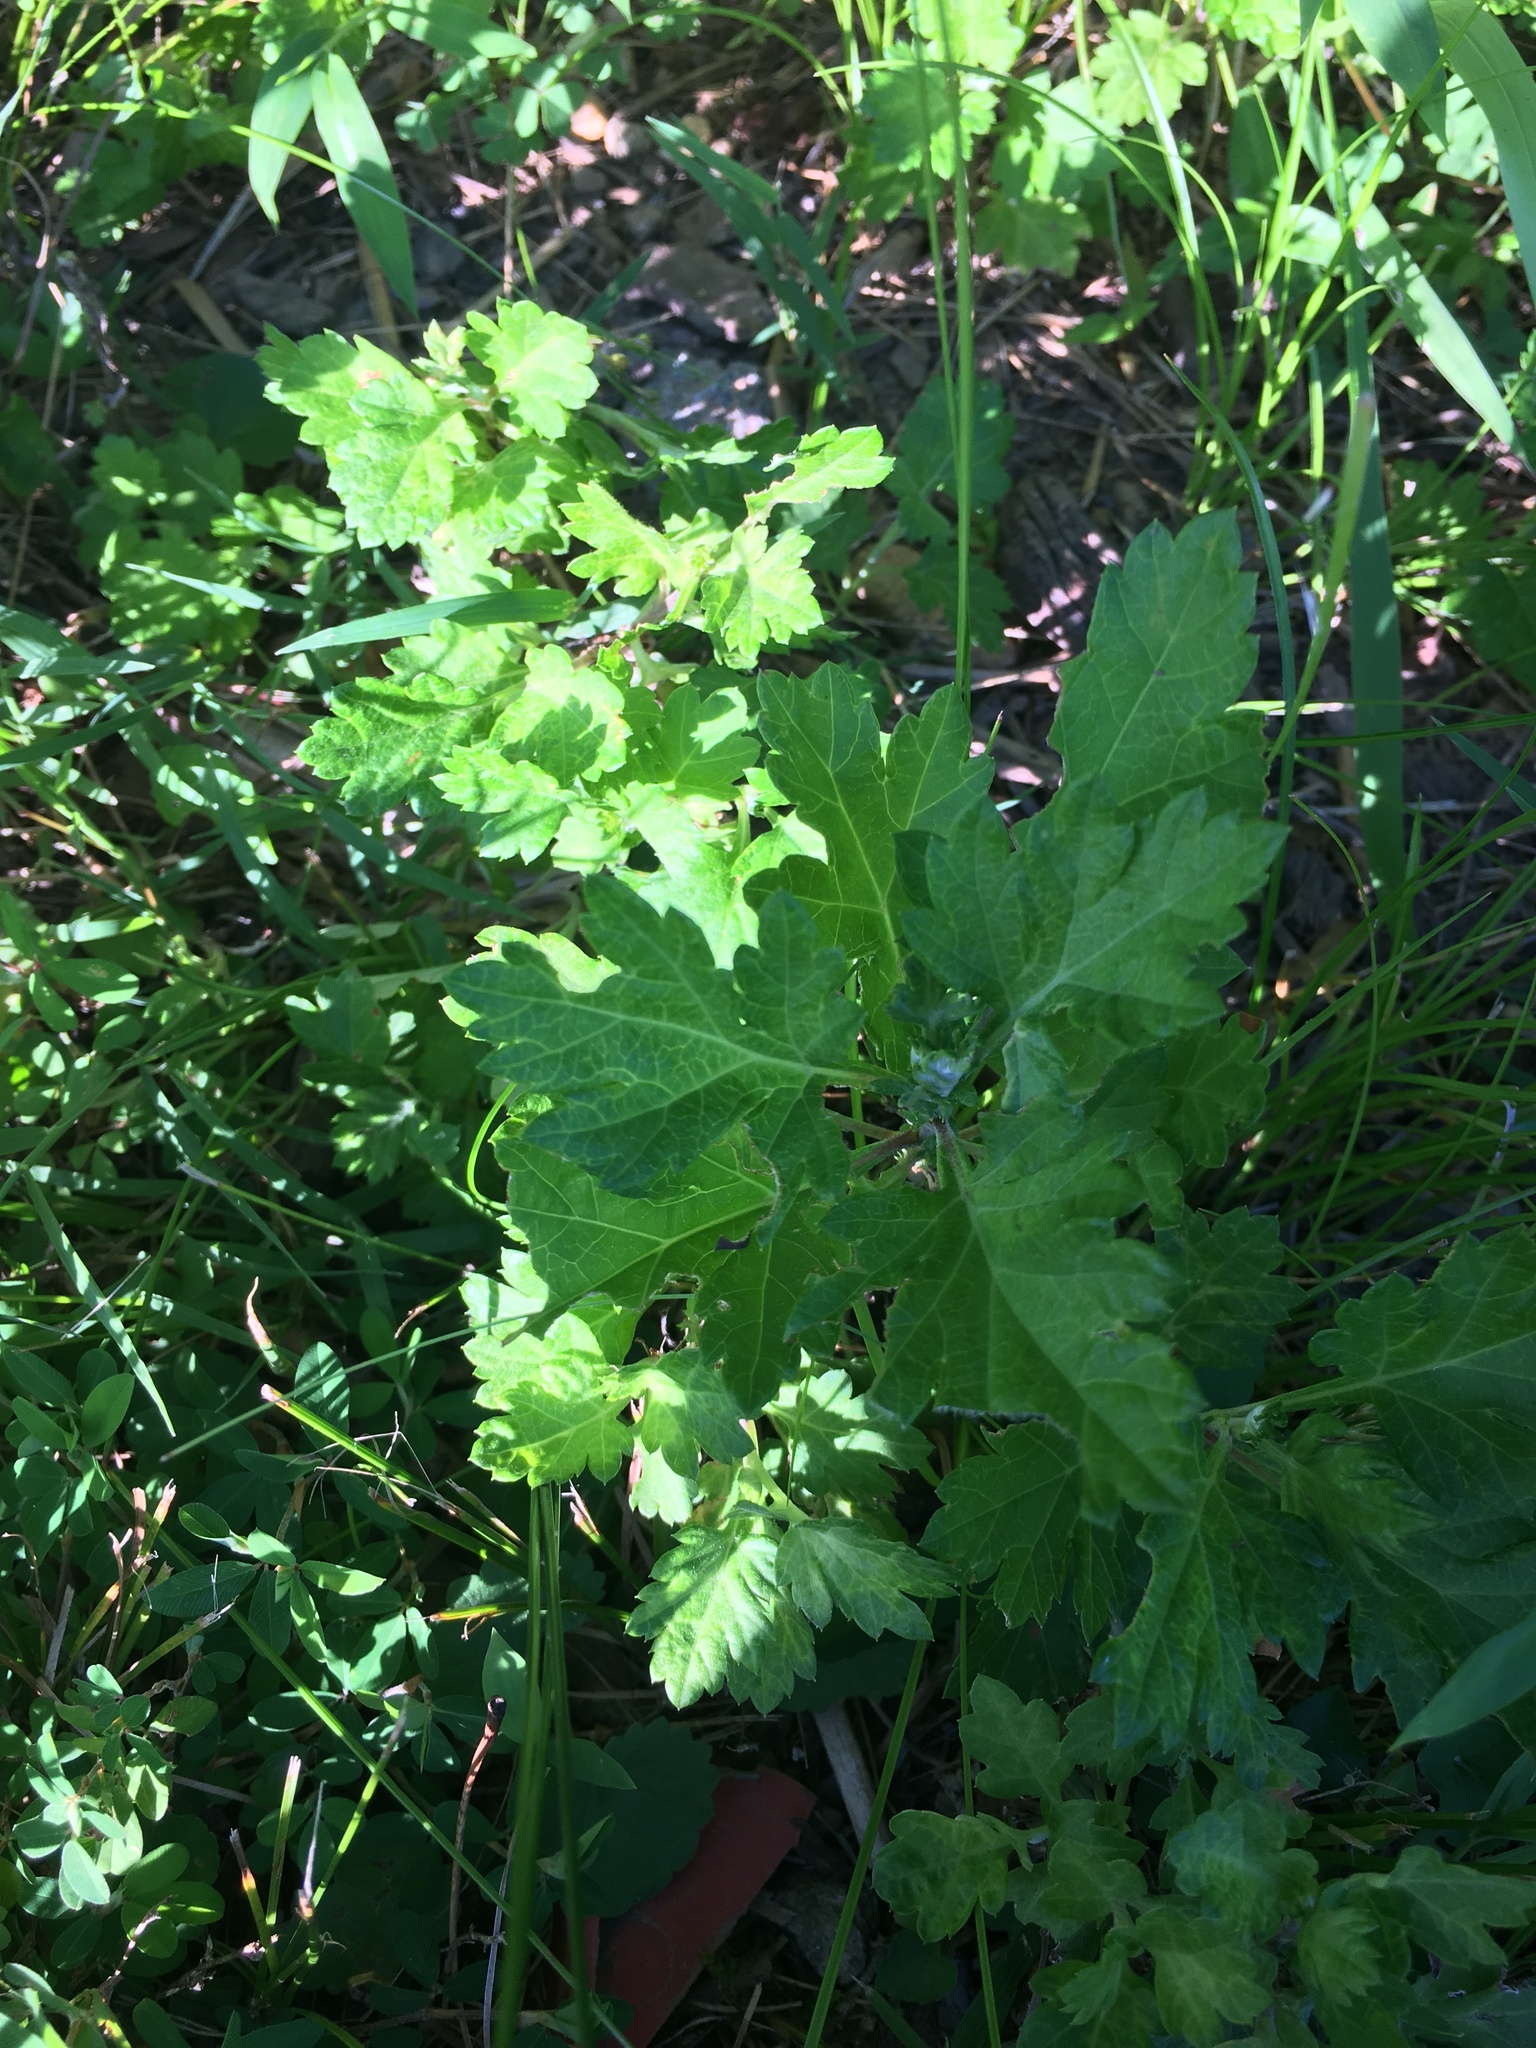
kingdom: Plantae
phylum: Tracheophyta
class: Magnoliopsida
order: Asterales
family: Asteraceae
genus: Artemisia
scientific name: Artemisia vulgaris
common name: Mugwort
